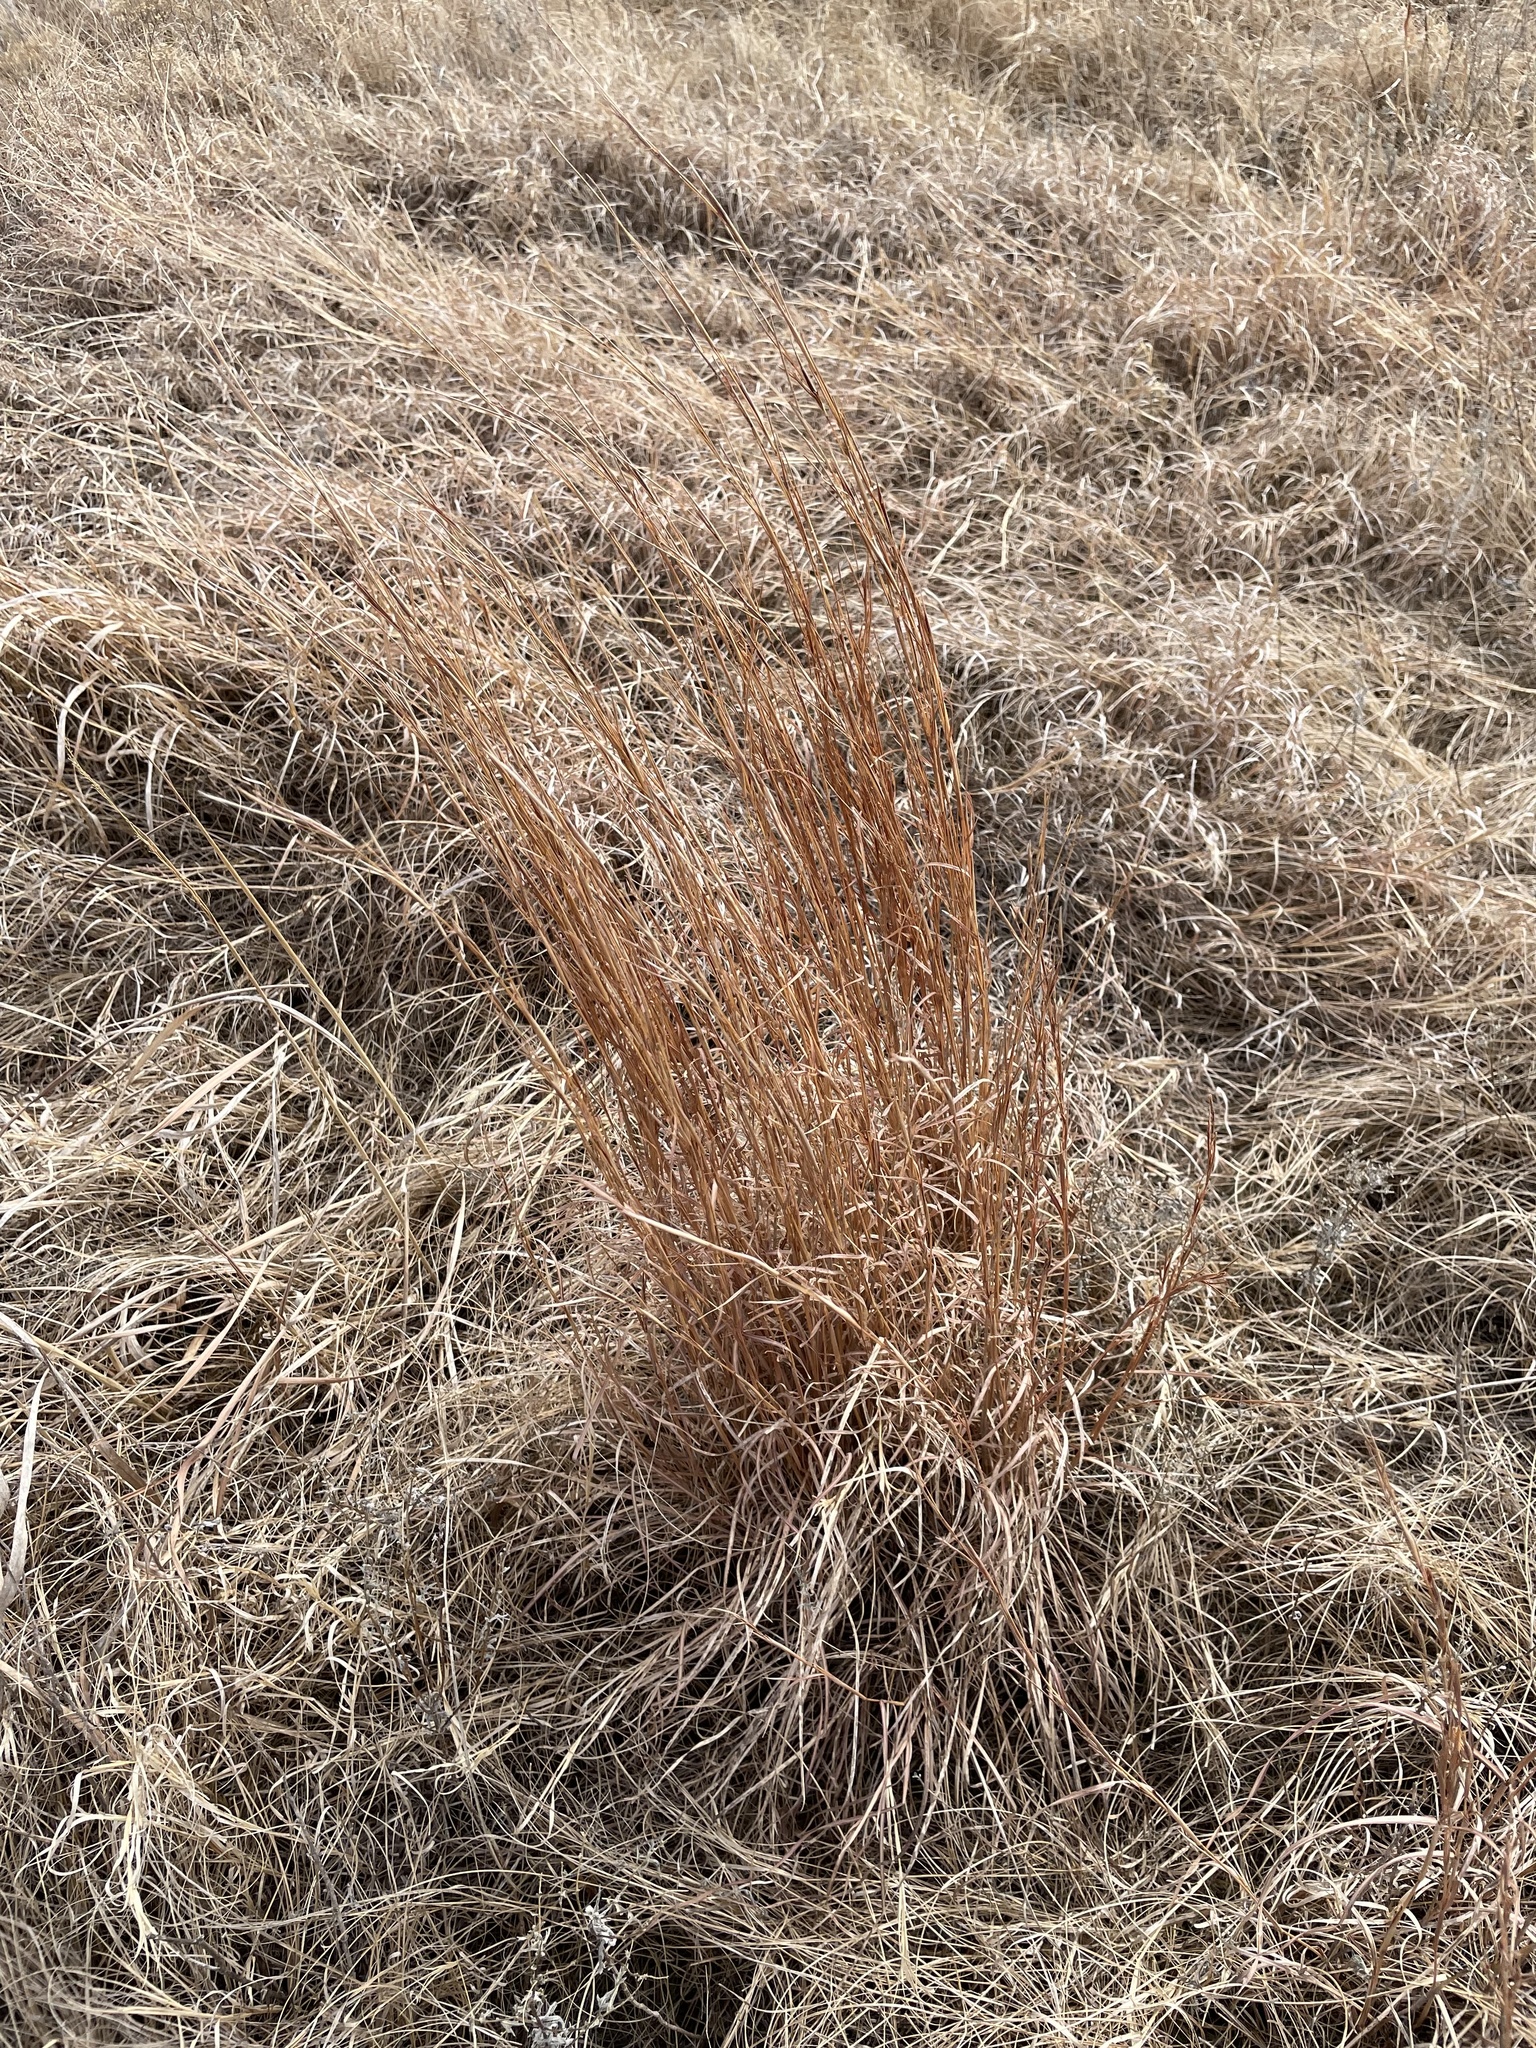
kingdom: Plantae
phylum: Tracheophyta
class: Liliopsida
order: Poales
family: Poaceae
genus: Schizachyrium
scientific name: Schizachyrium scoparium
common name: Little bluestem
